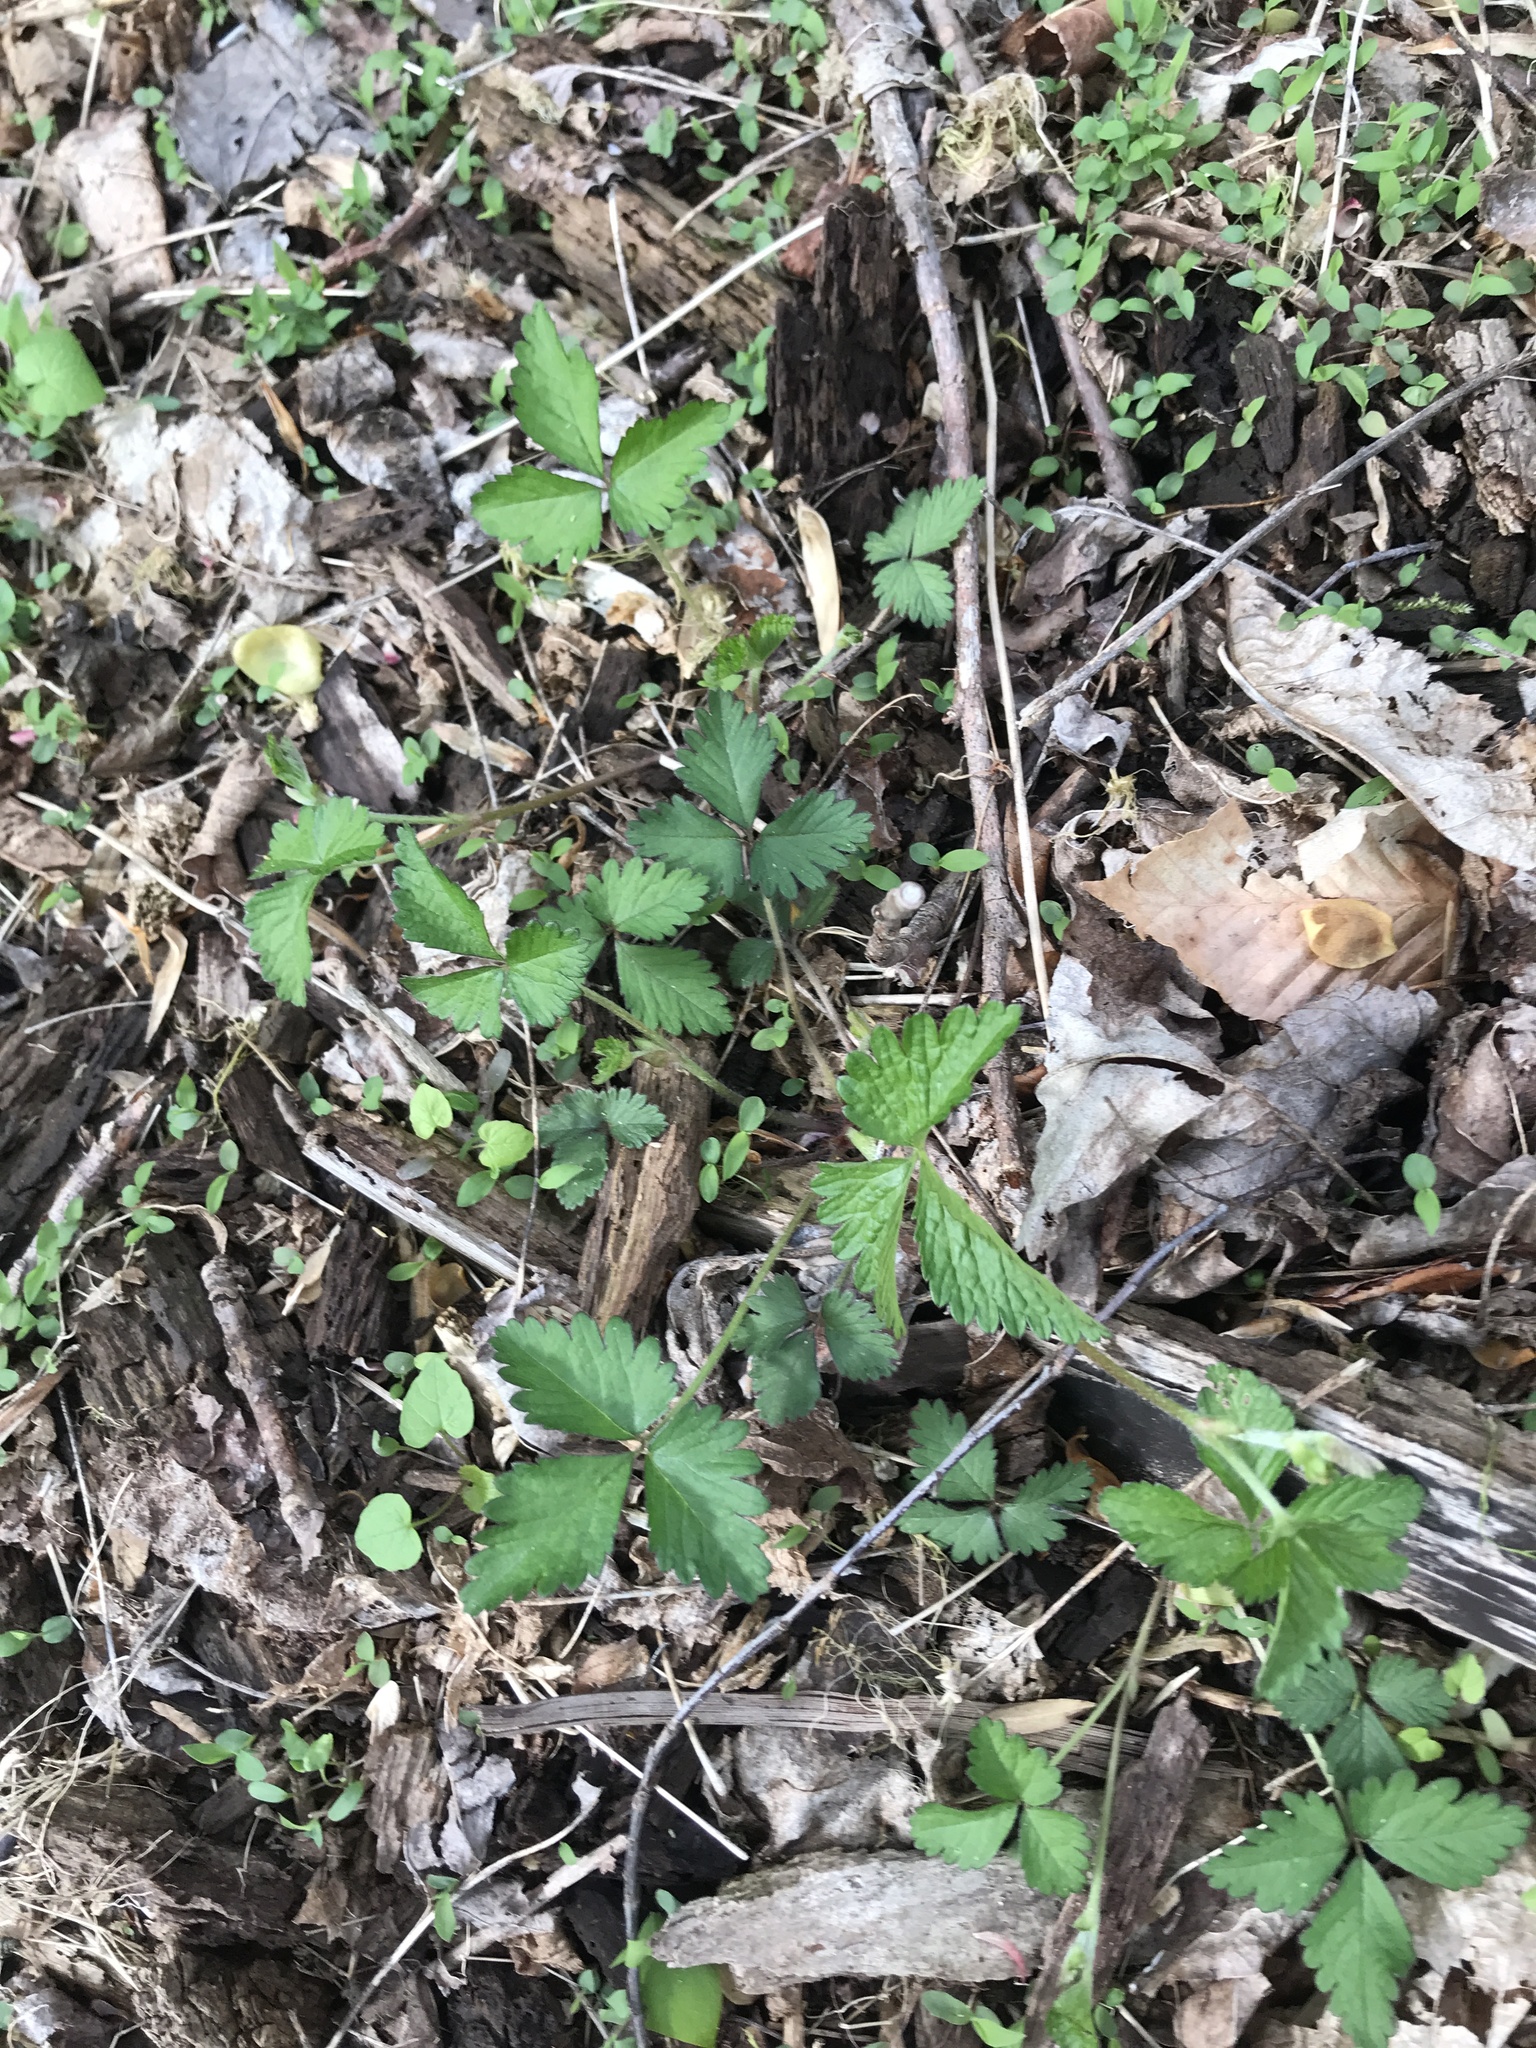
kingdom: Plantae
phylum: Tracheophyta
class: Magnoliopsida
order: Rosales
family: Rosaceae
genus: Potentilla
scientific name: Potentilla indica
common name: Yellow-flowered strawberry
